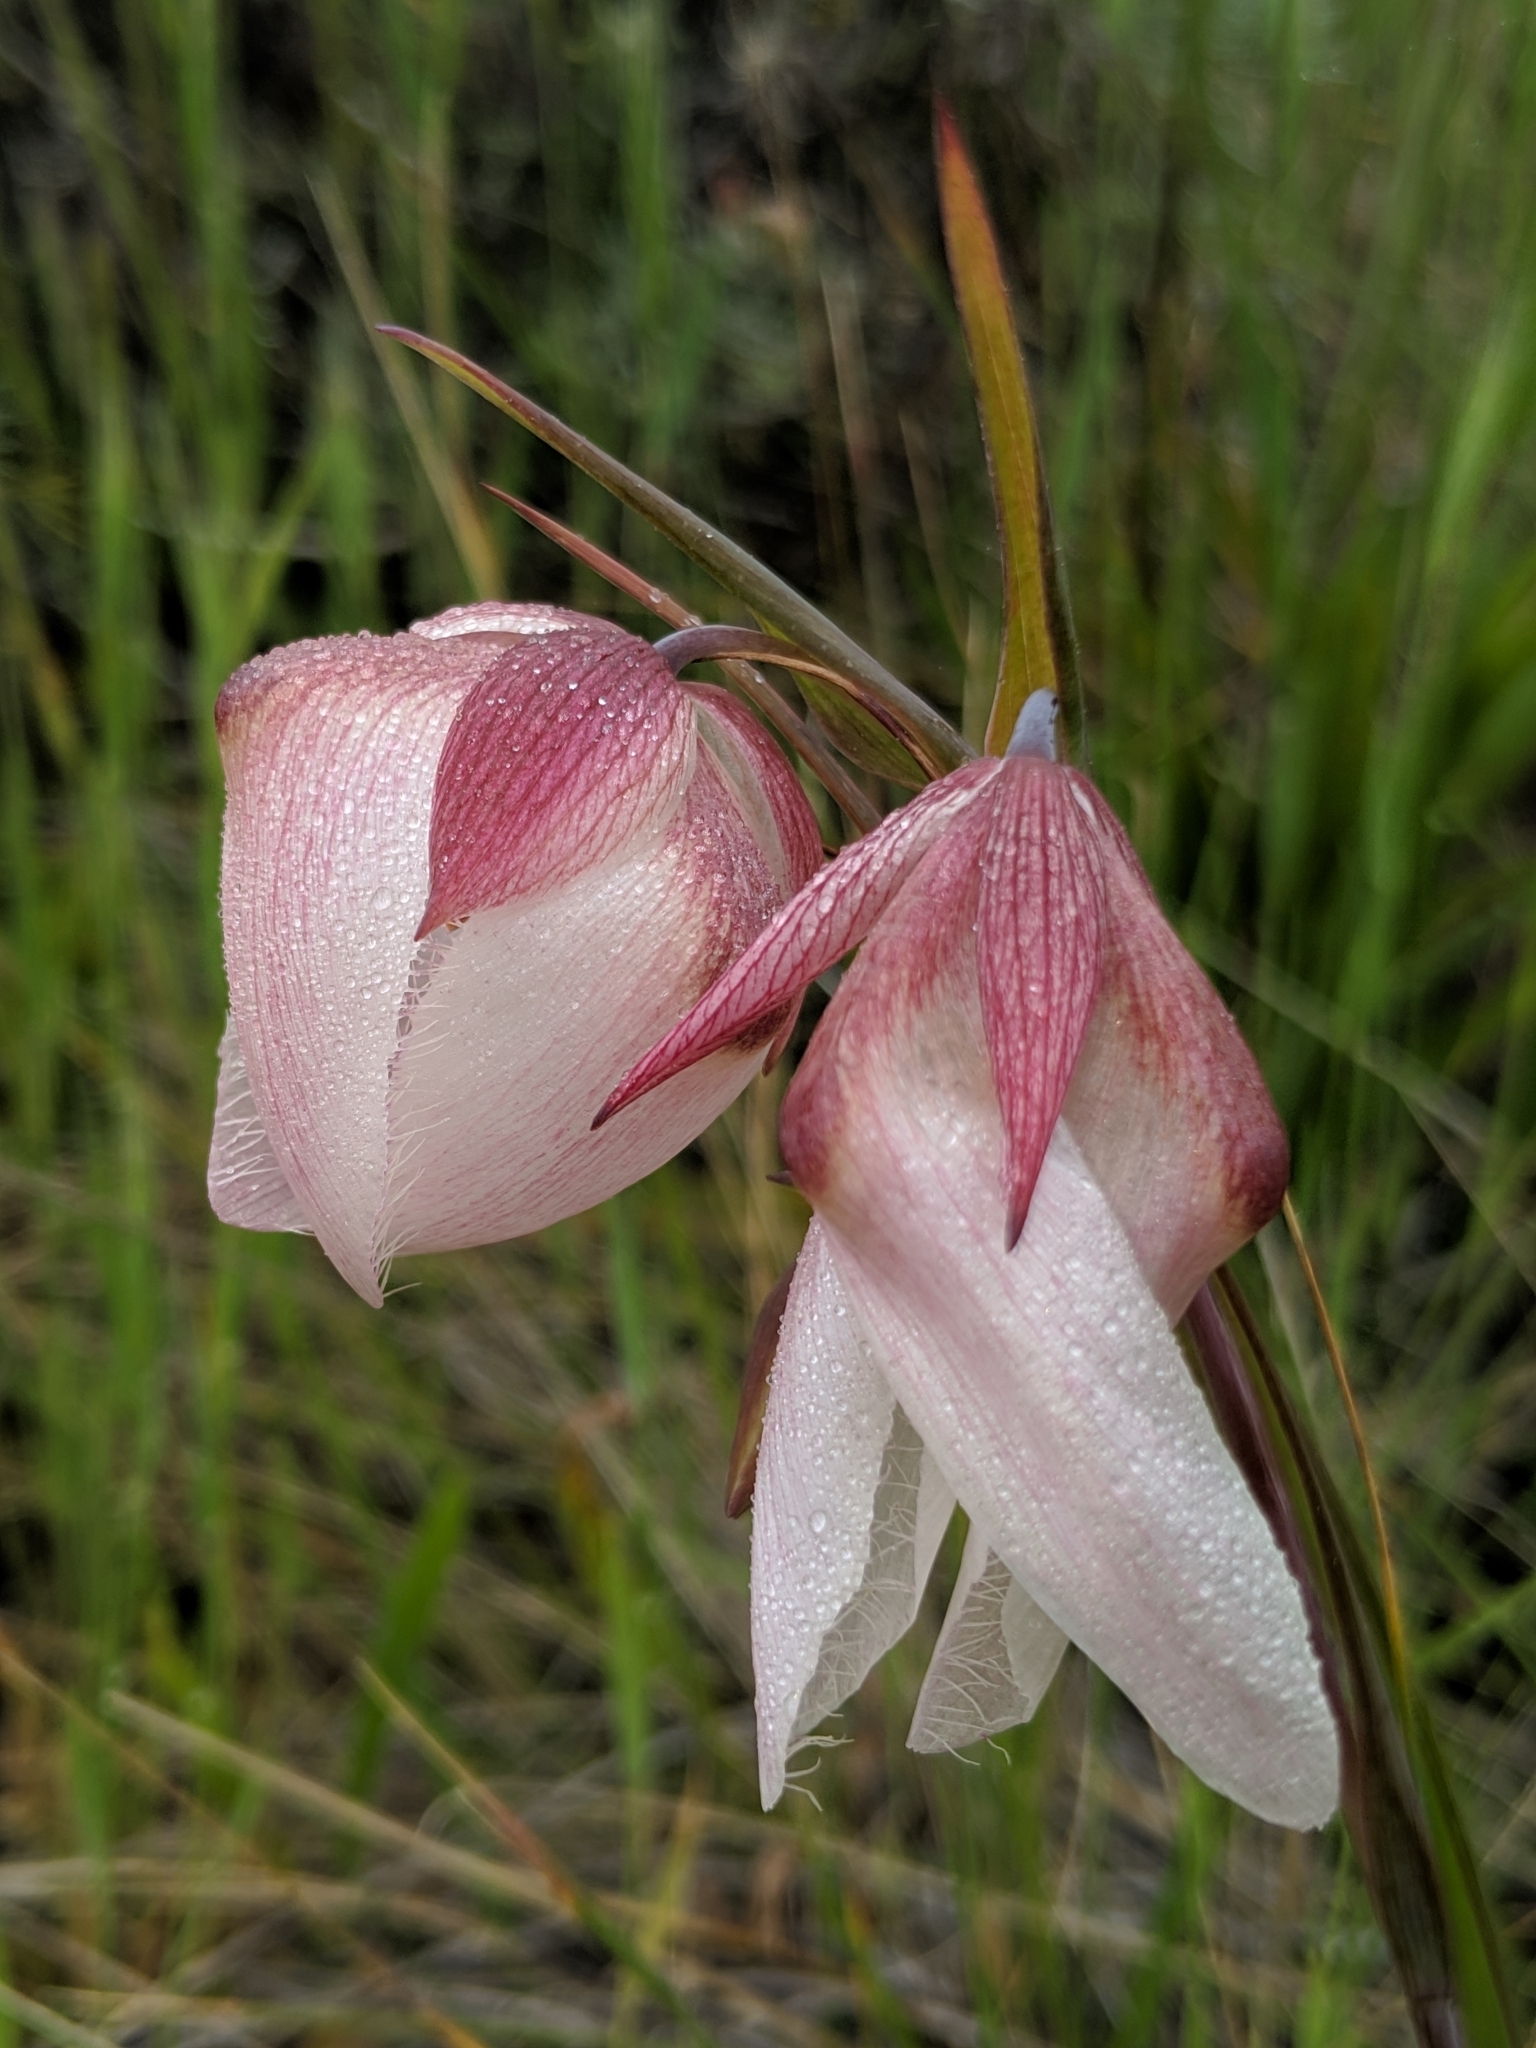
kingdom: Plantae
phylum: Tracheophyta
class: Liliopsida
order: Liliales
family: Liliaceae
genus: Calochortus
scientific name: Calochortus albus
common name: Fairy-lantern
